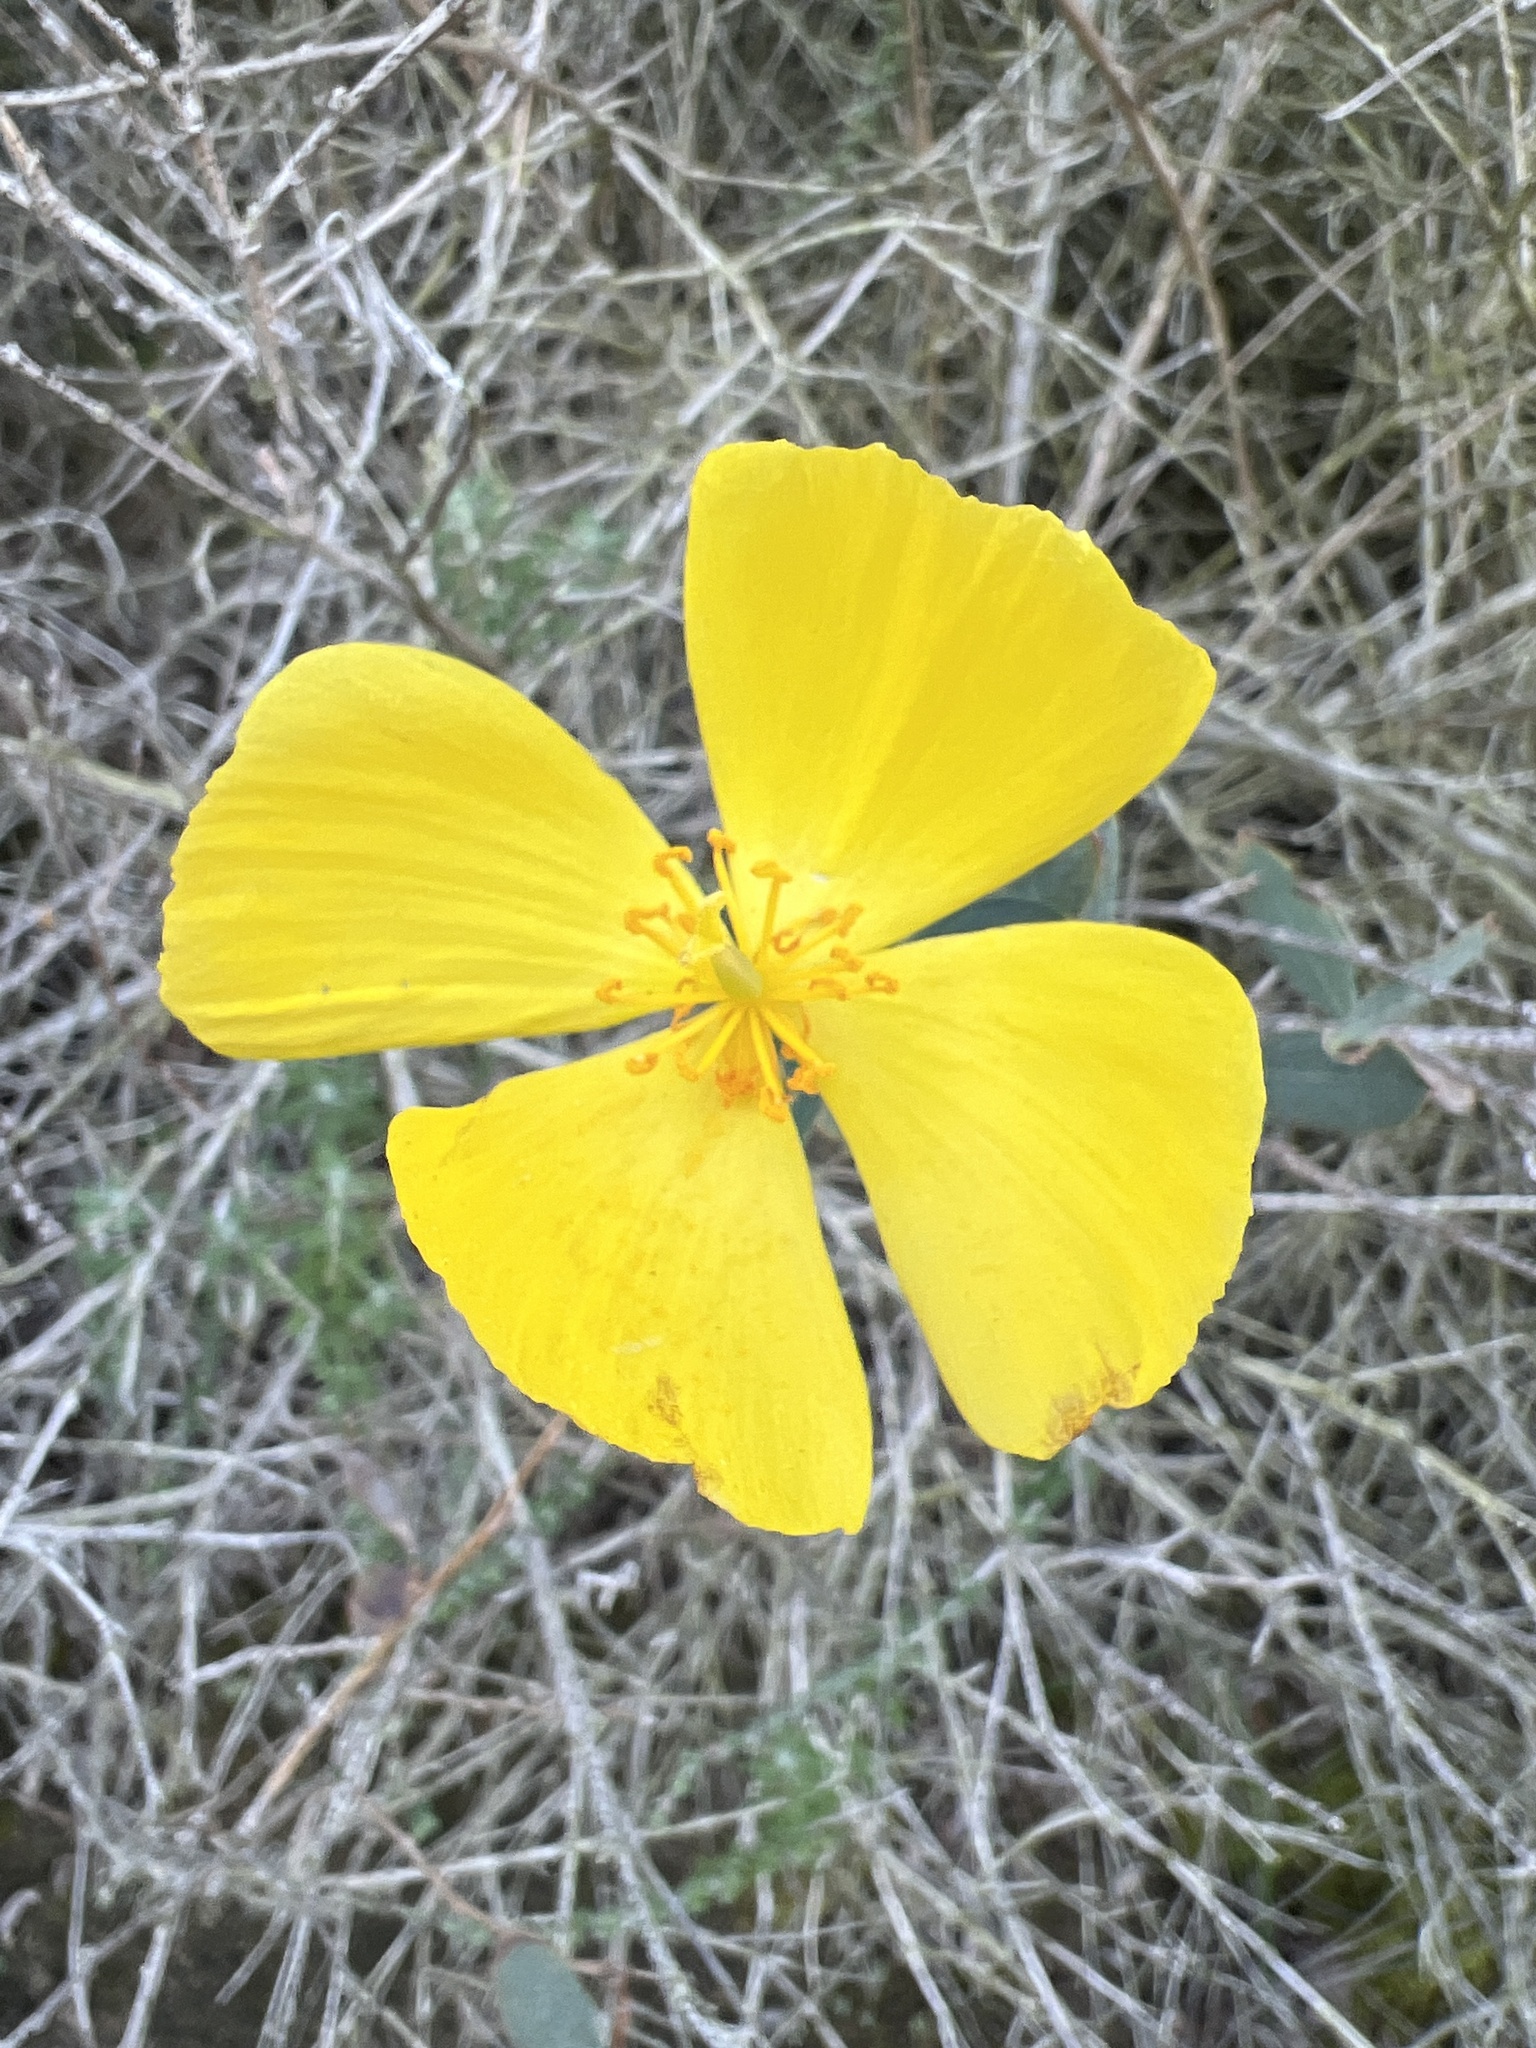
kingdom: Plantae
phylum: Tracheophyta
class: Magnoliopsida
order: Ranunculales
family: Papaveraceae
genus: Dendromecon
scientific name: Dendromecon rigida
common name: Tree poppy
